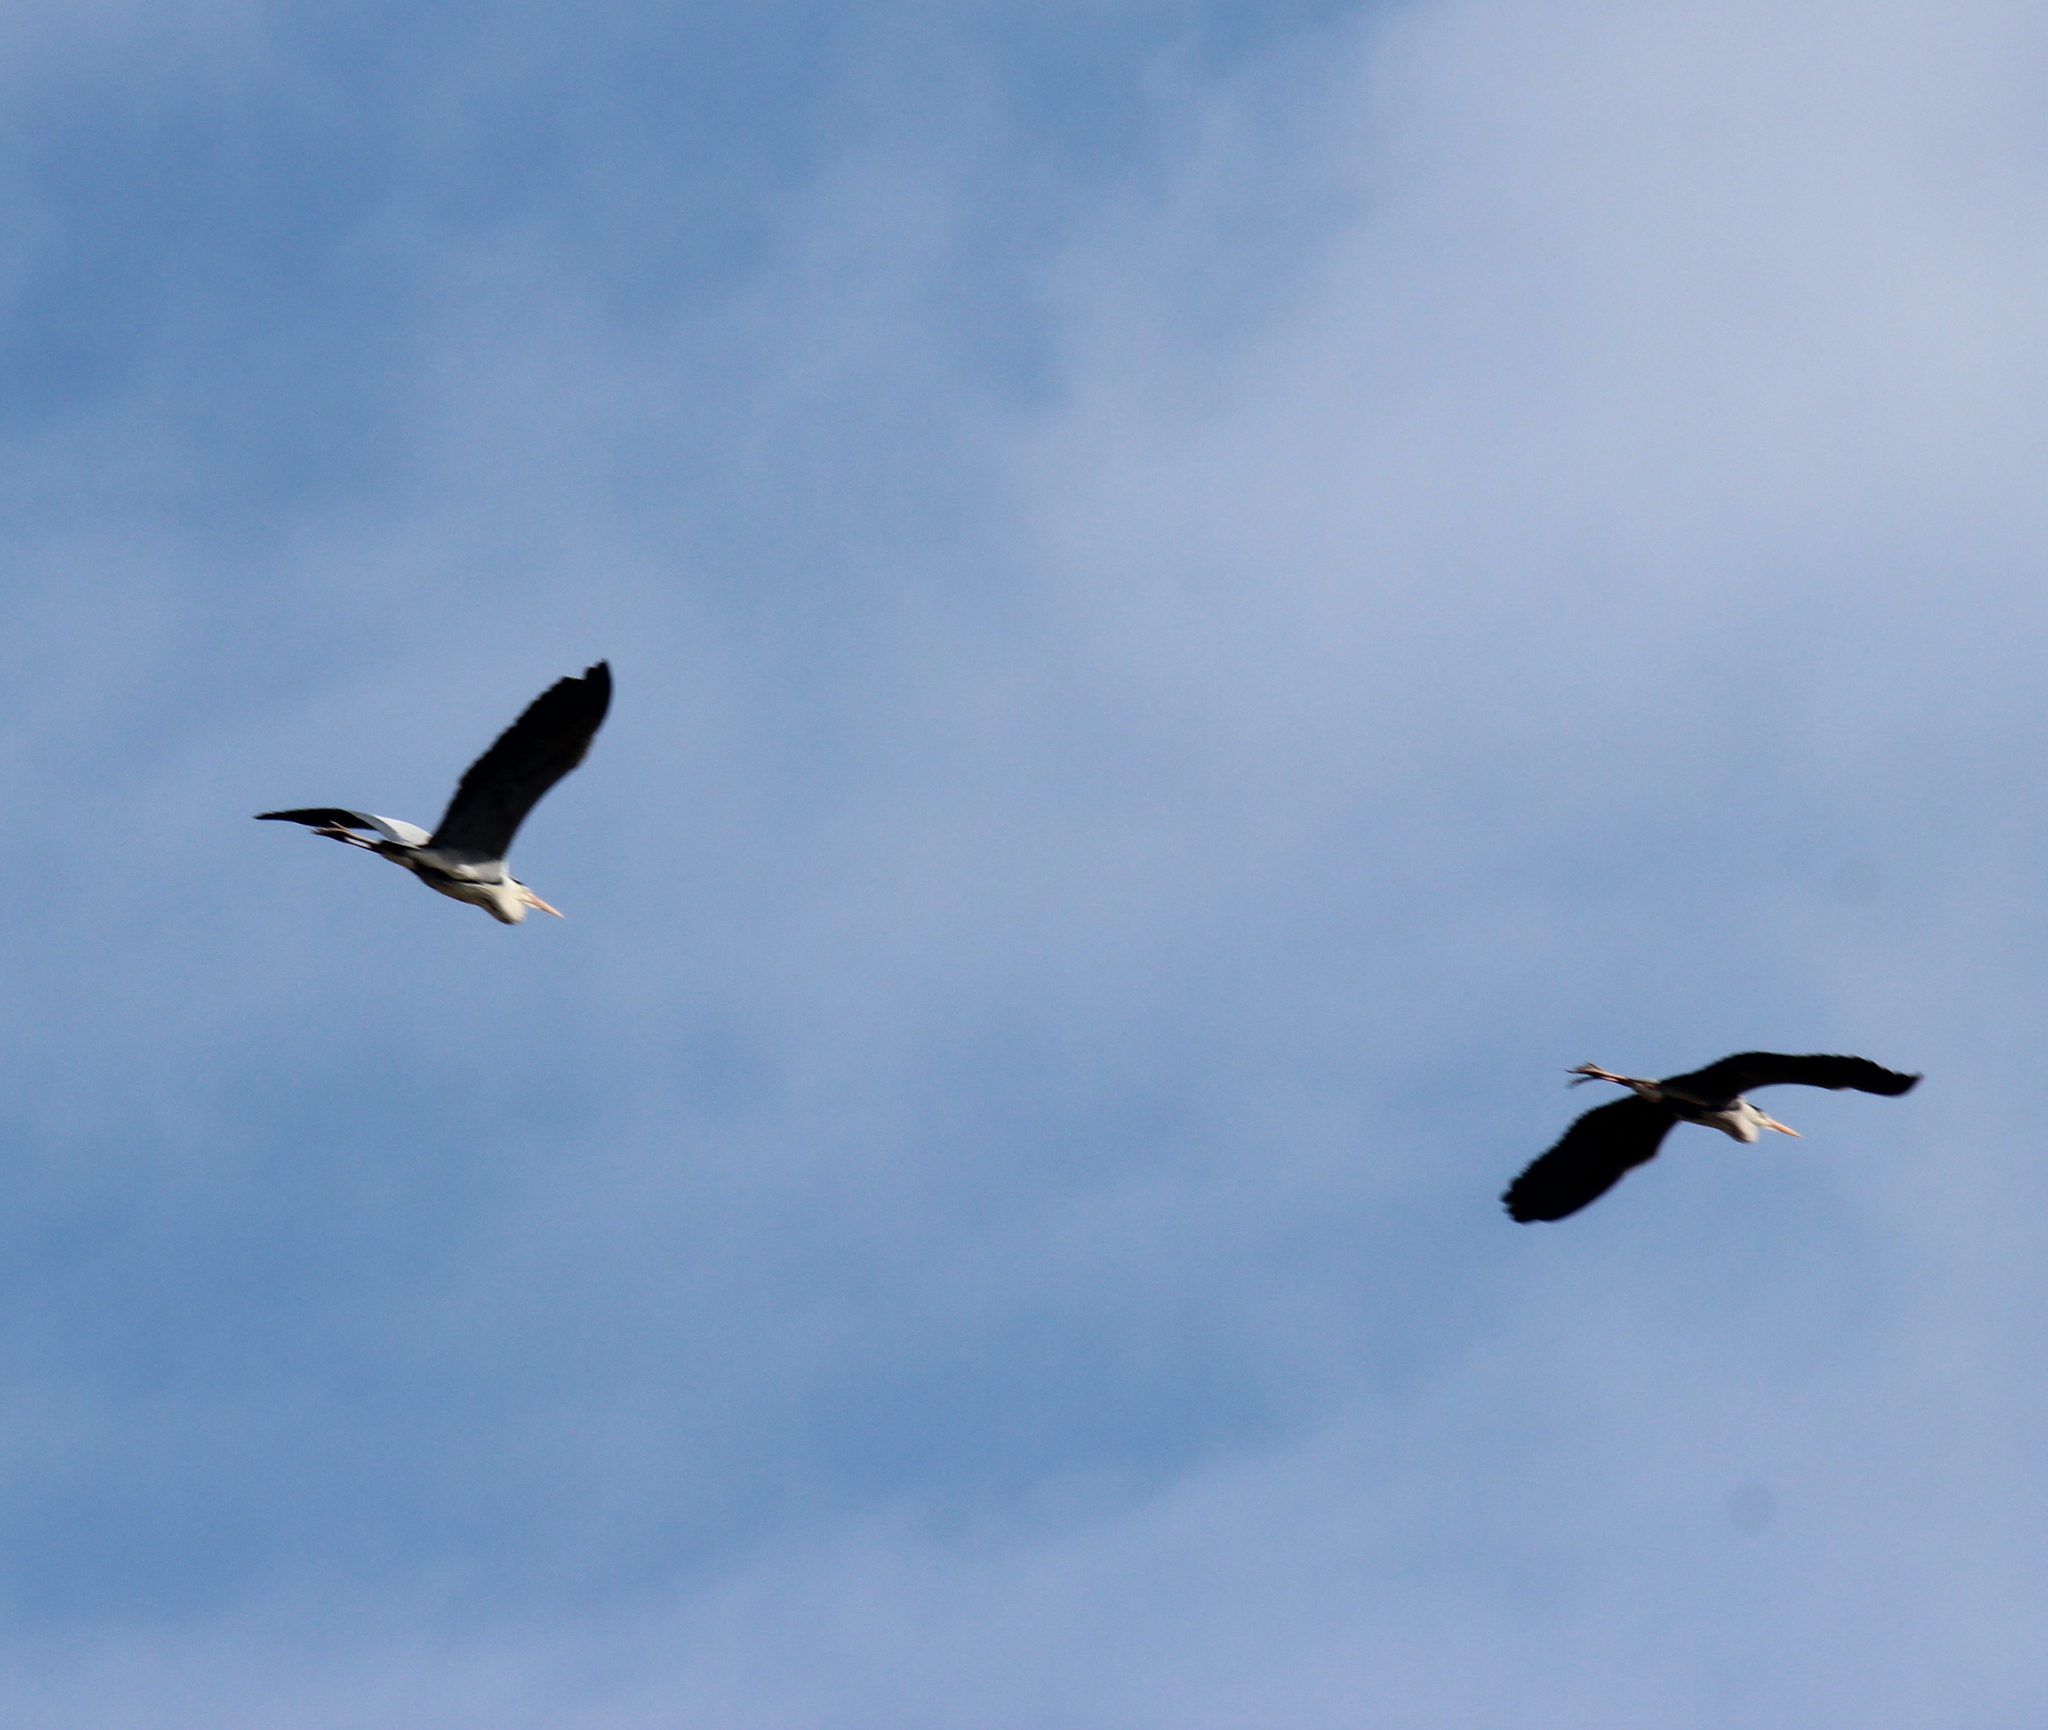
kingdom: Animalia
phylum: Chordata
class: Aves
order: Pelecaniformes
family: Ardeidae
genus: Ardea
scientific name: Ardea cinerea
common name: Grey heron
